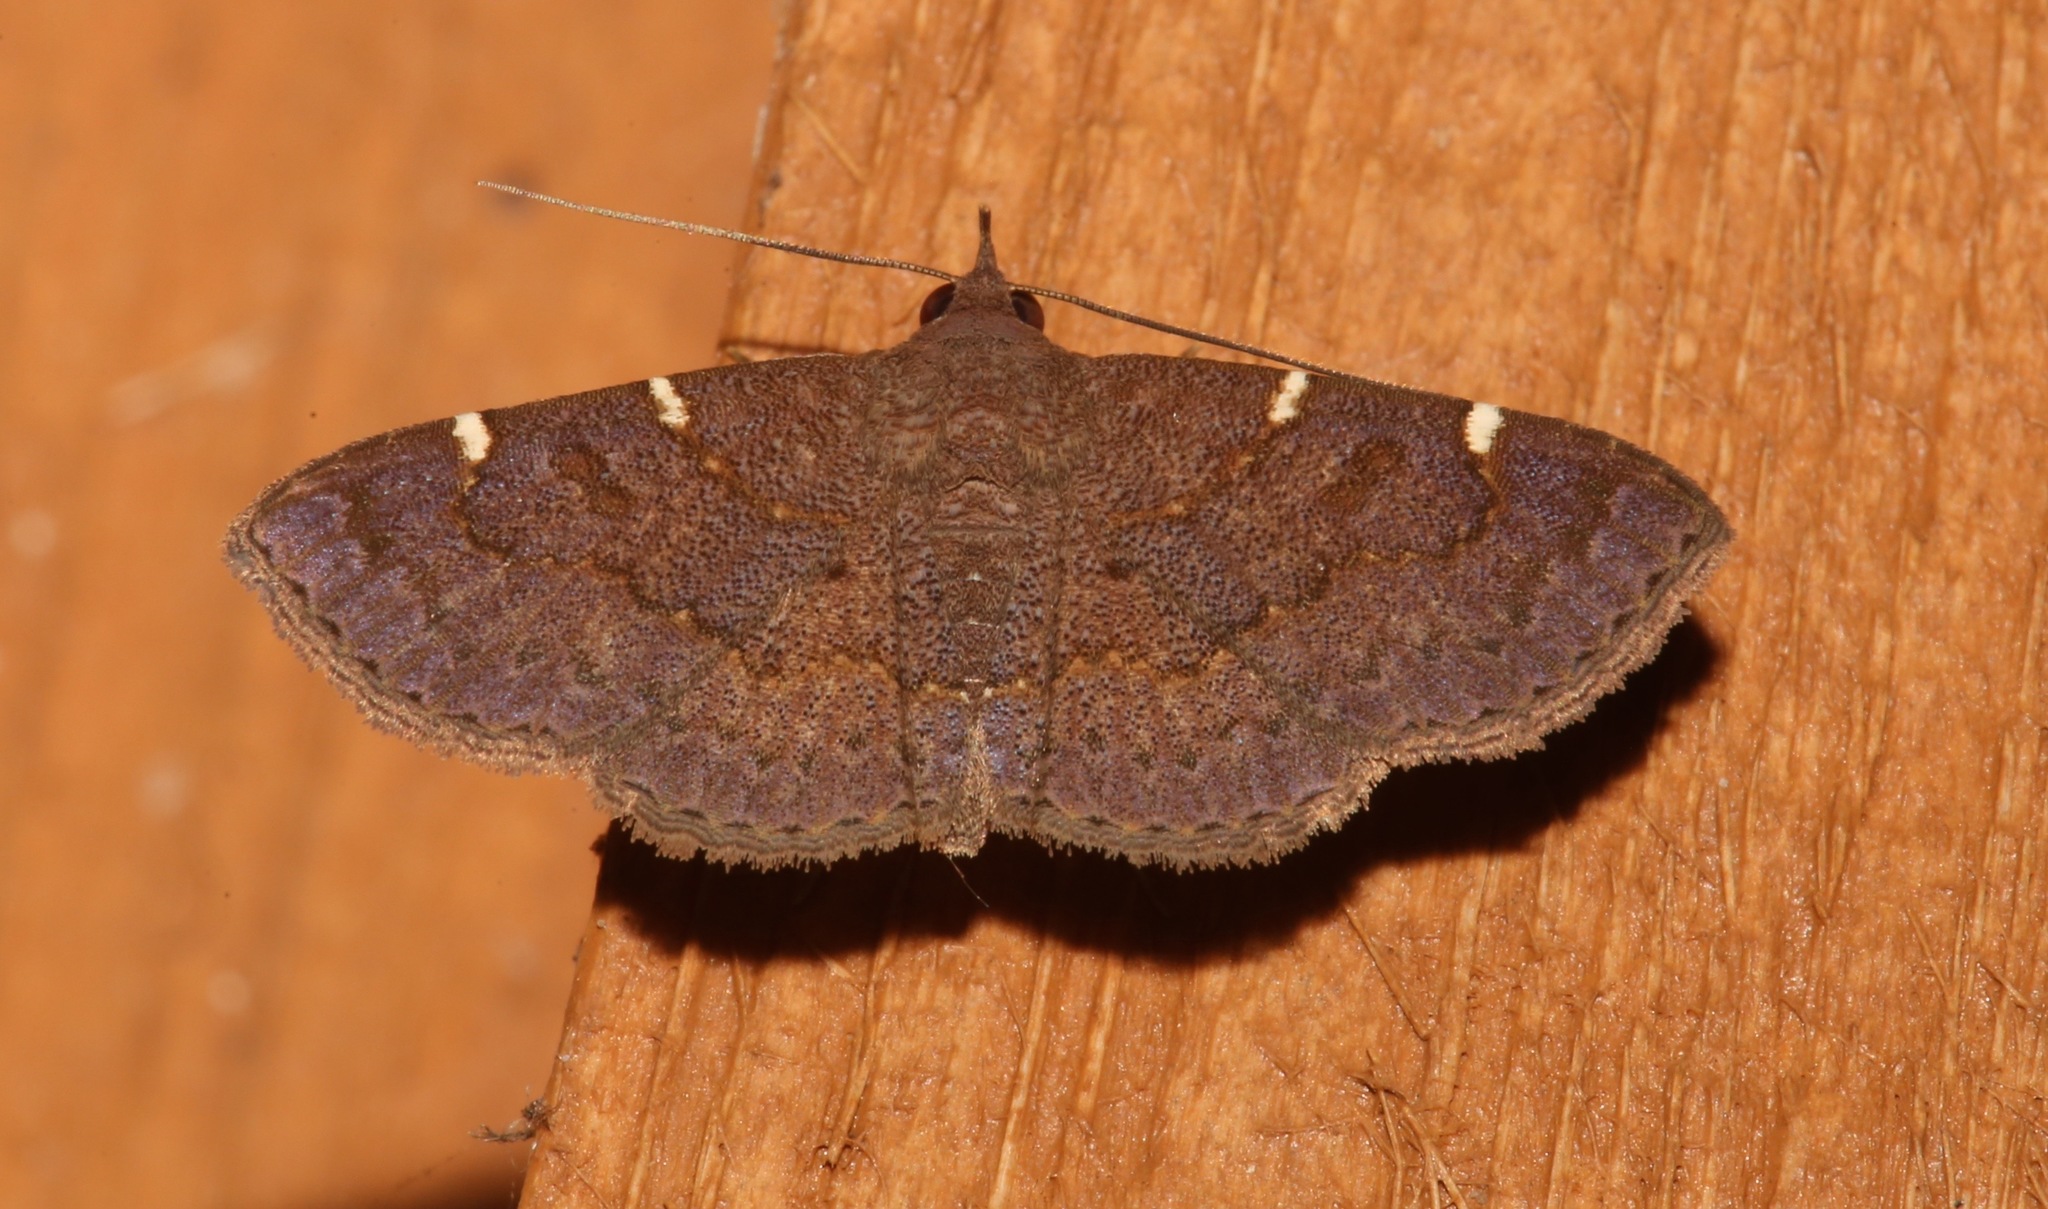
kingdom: Animalia
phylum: Arthropoda
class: Insecta
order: Lepidoptera
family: Erebidae
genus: Antiblemma
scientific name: Antiblemma perva
